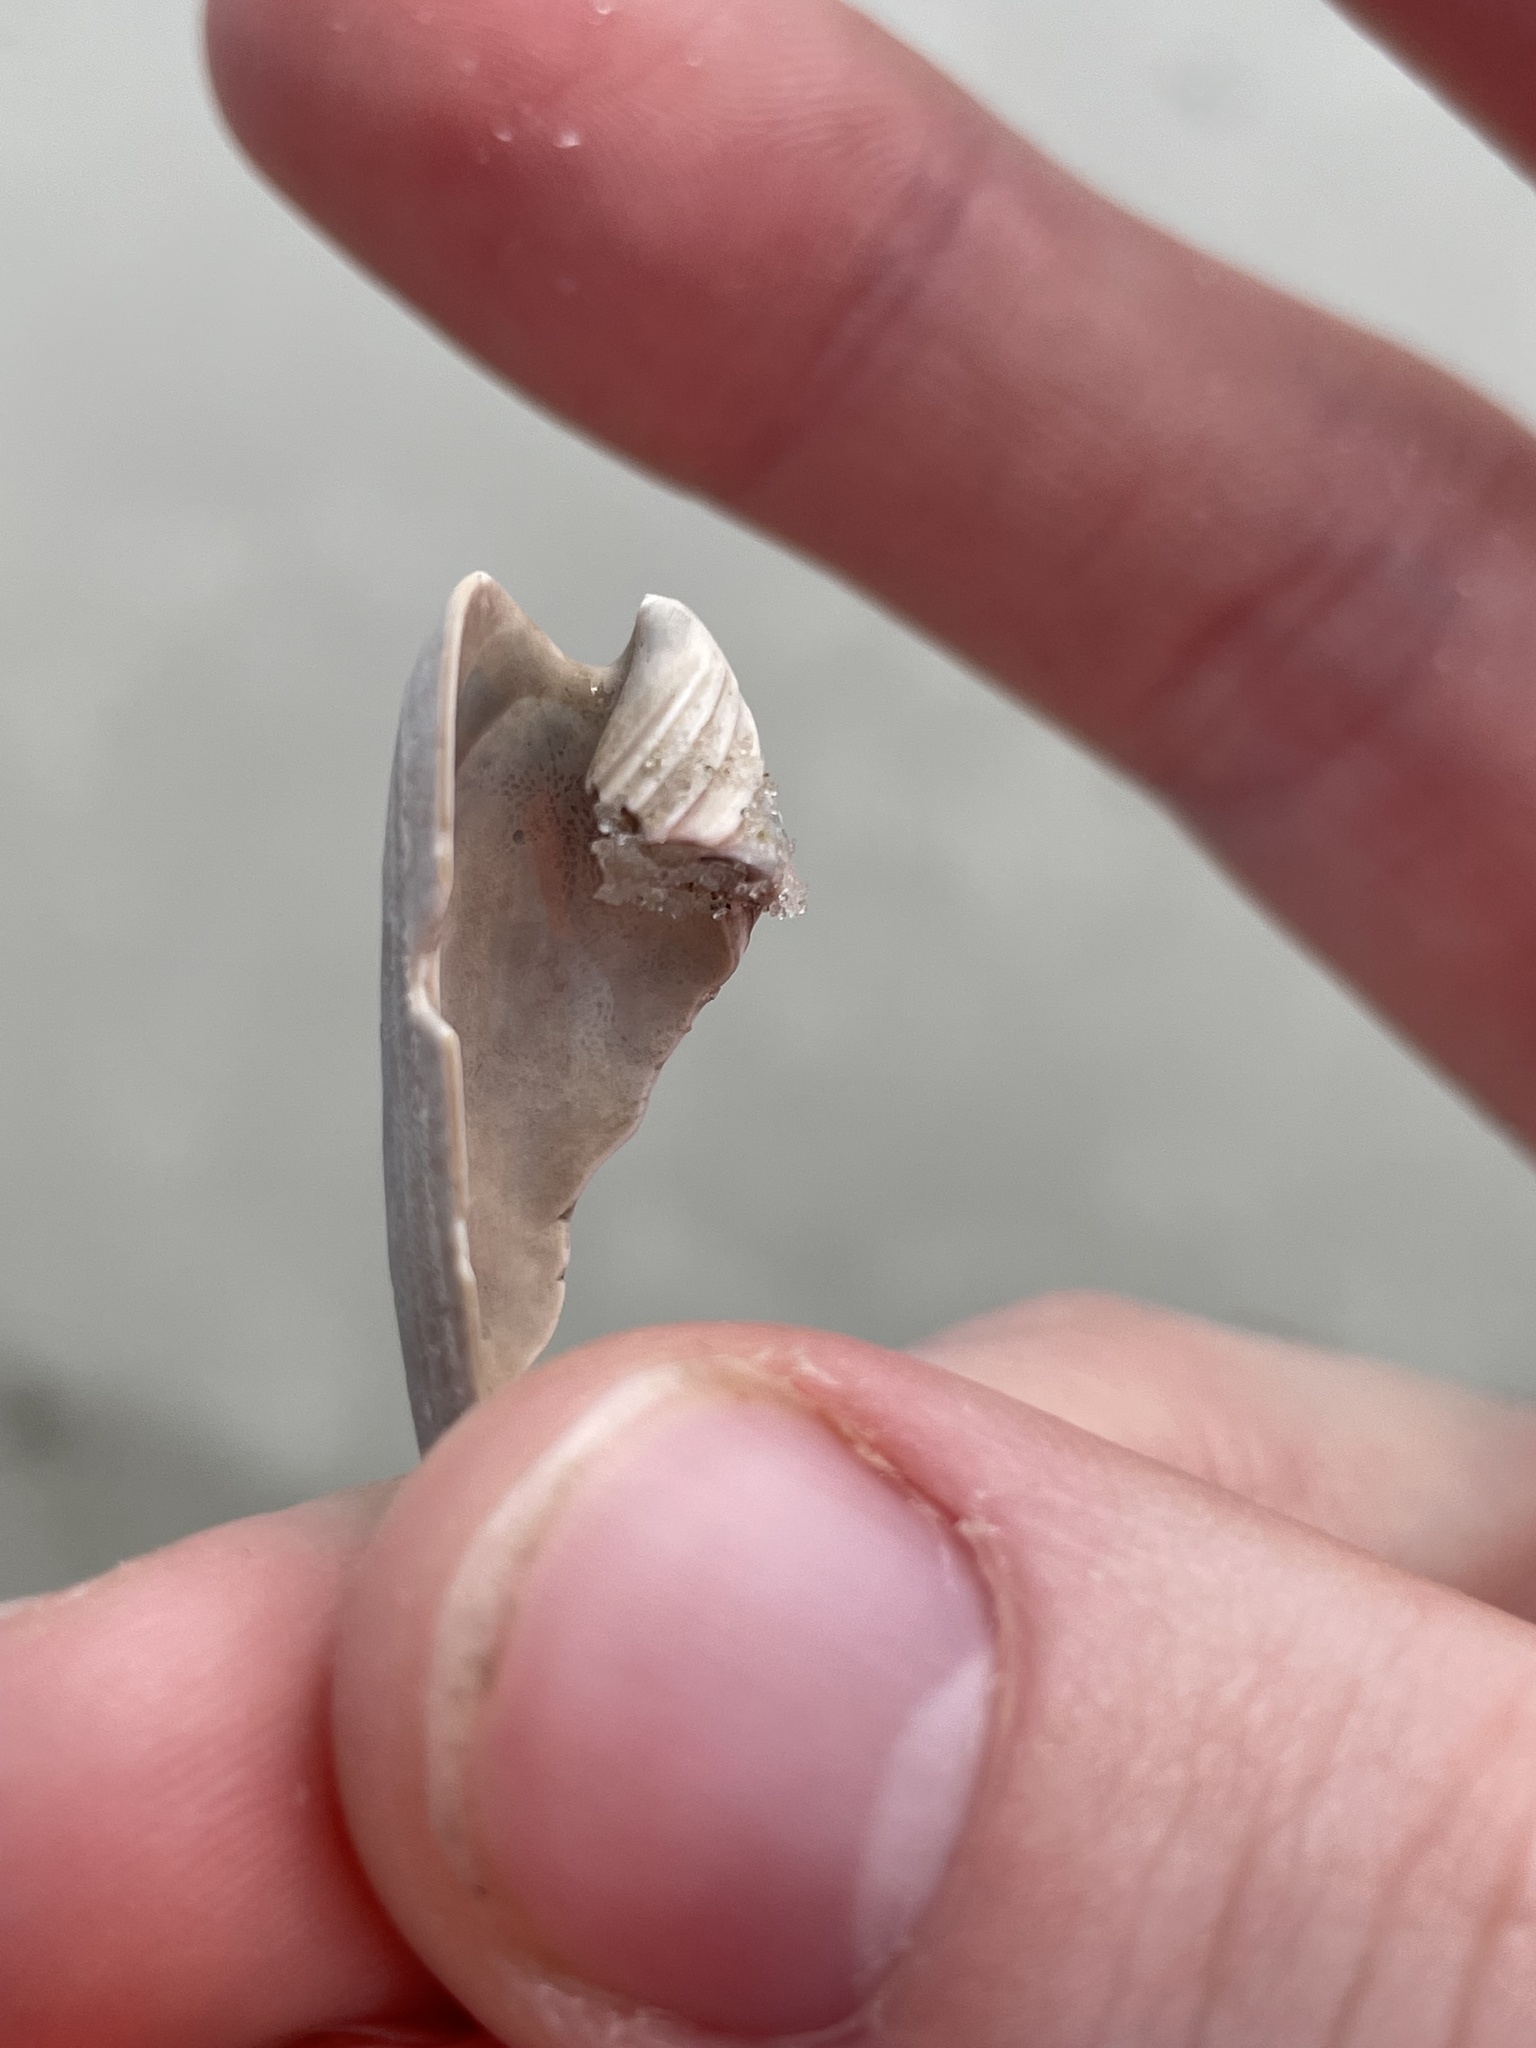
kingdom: Animalia
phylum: Mollusca
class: Gastropoda
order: Neogastropoda
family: Olividae
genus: Oliva
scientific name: Oliva sayana
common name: Lettered olive
